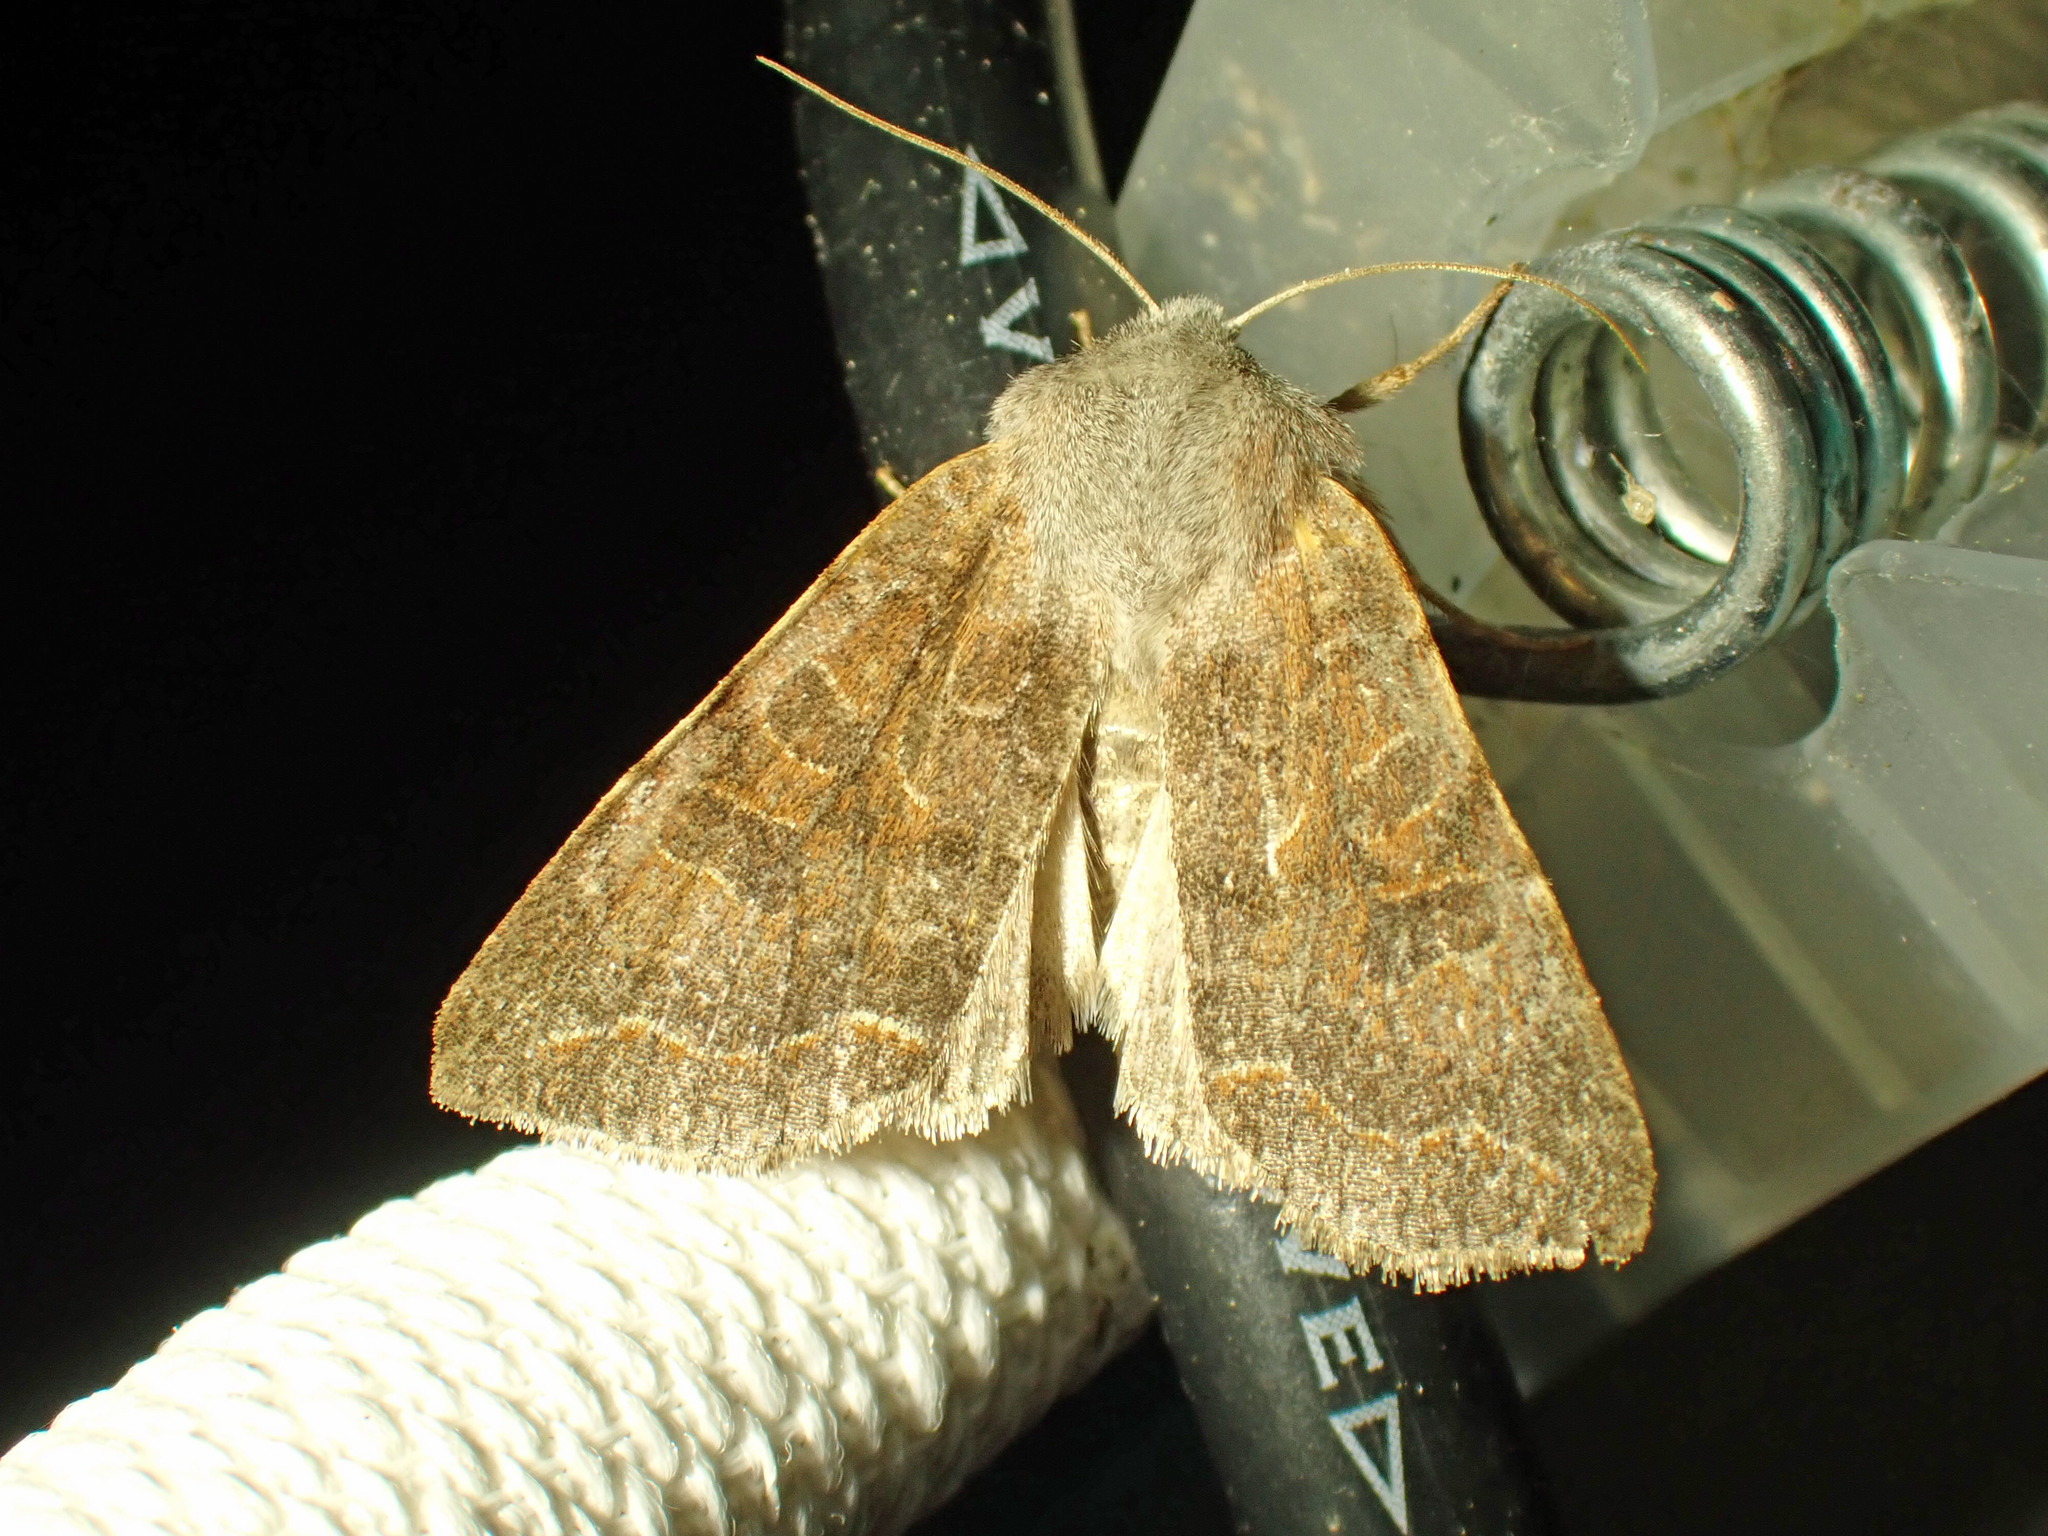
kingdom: Animalia
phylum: Arthropoda
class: Insecta
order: Lepidoptera
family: Noctuidae
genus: Orthosia
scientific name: Orthosia revicta
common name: Rusty whitesided caterpillar
